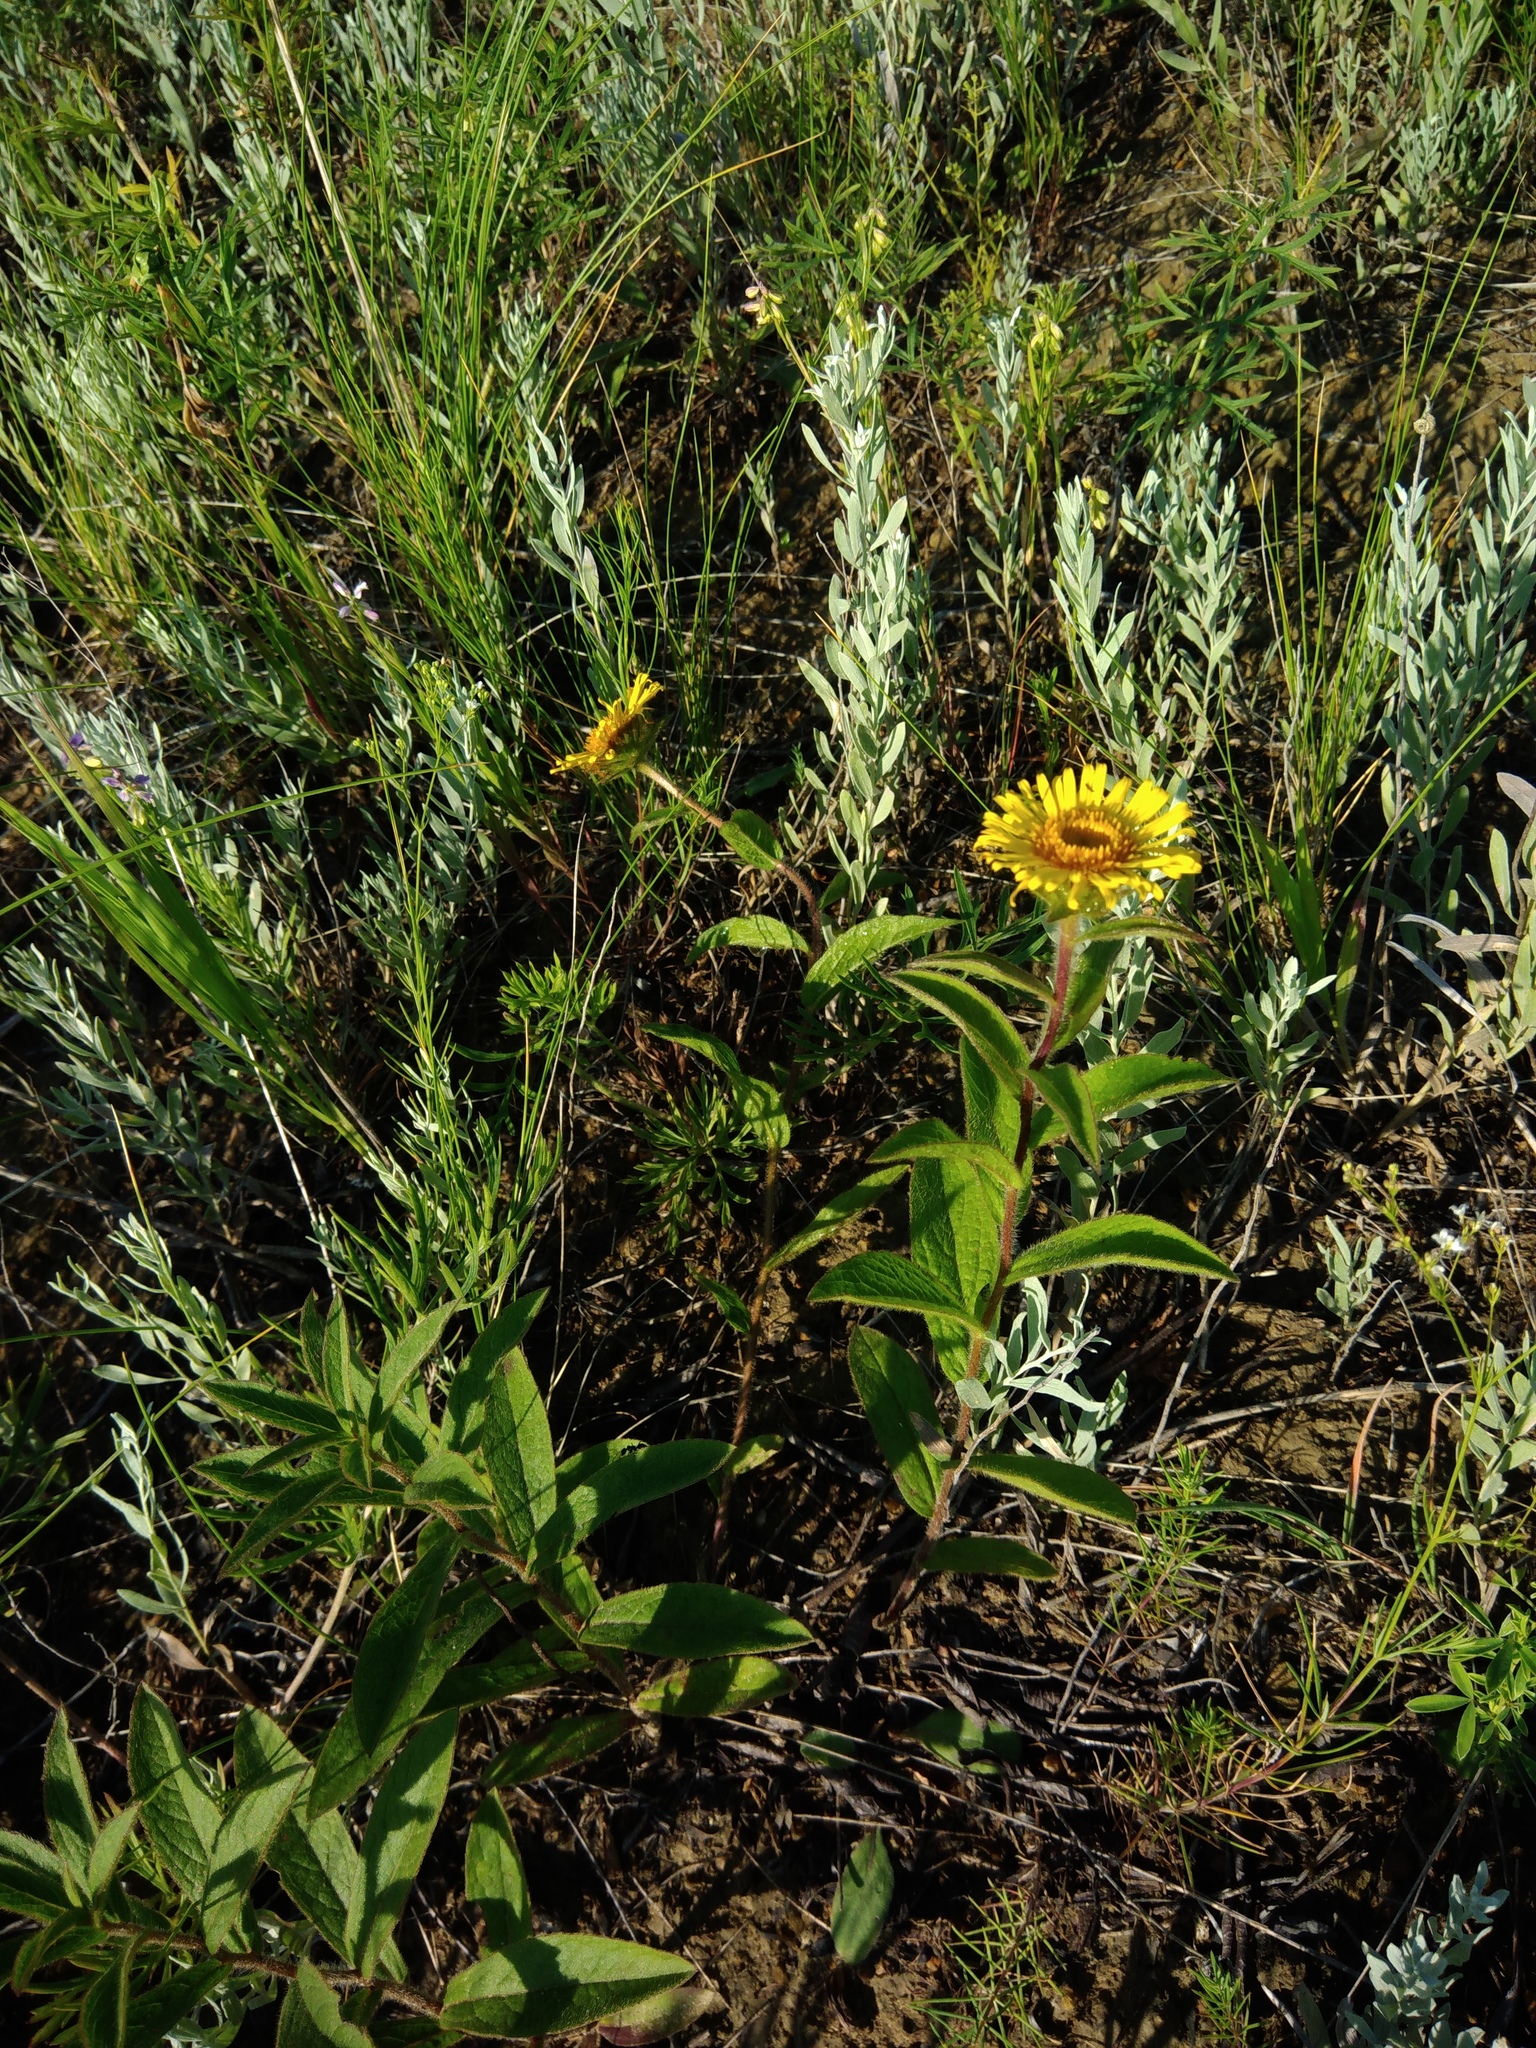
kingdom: Plantae
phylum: Tracheophyta
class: Magnoliopsida
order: Asterales
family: Asteraceae
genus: Pentanema
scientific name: Pentanema hirtum
